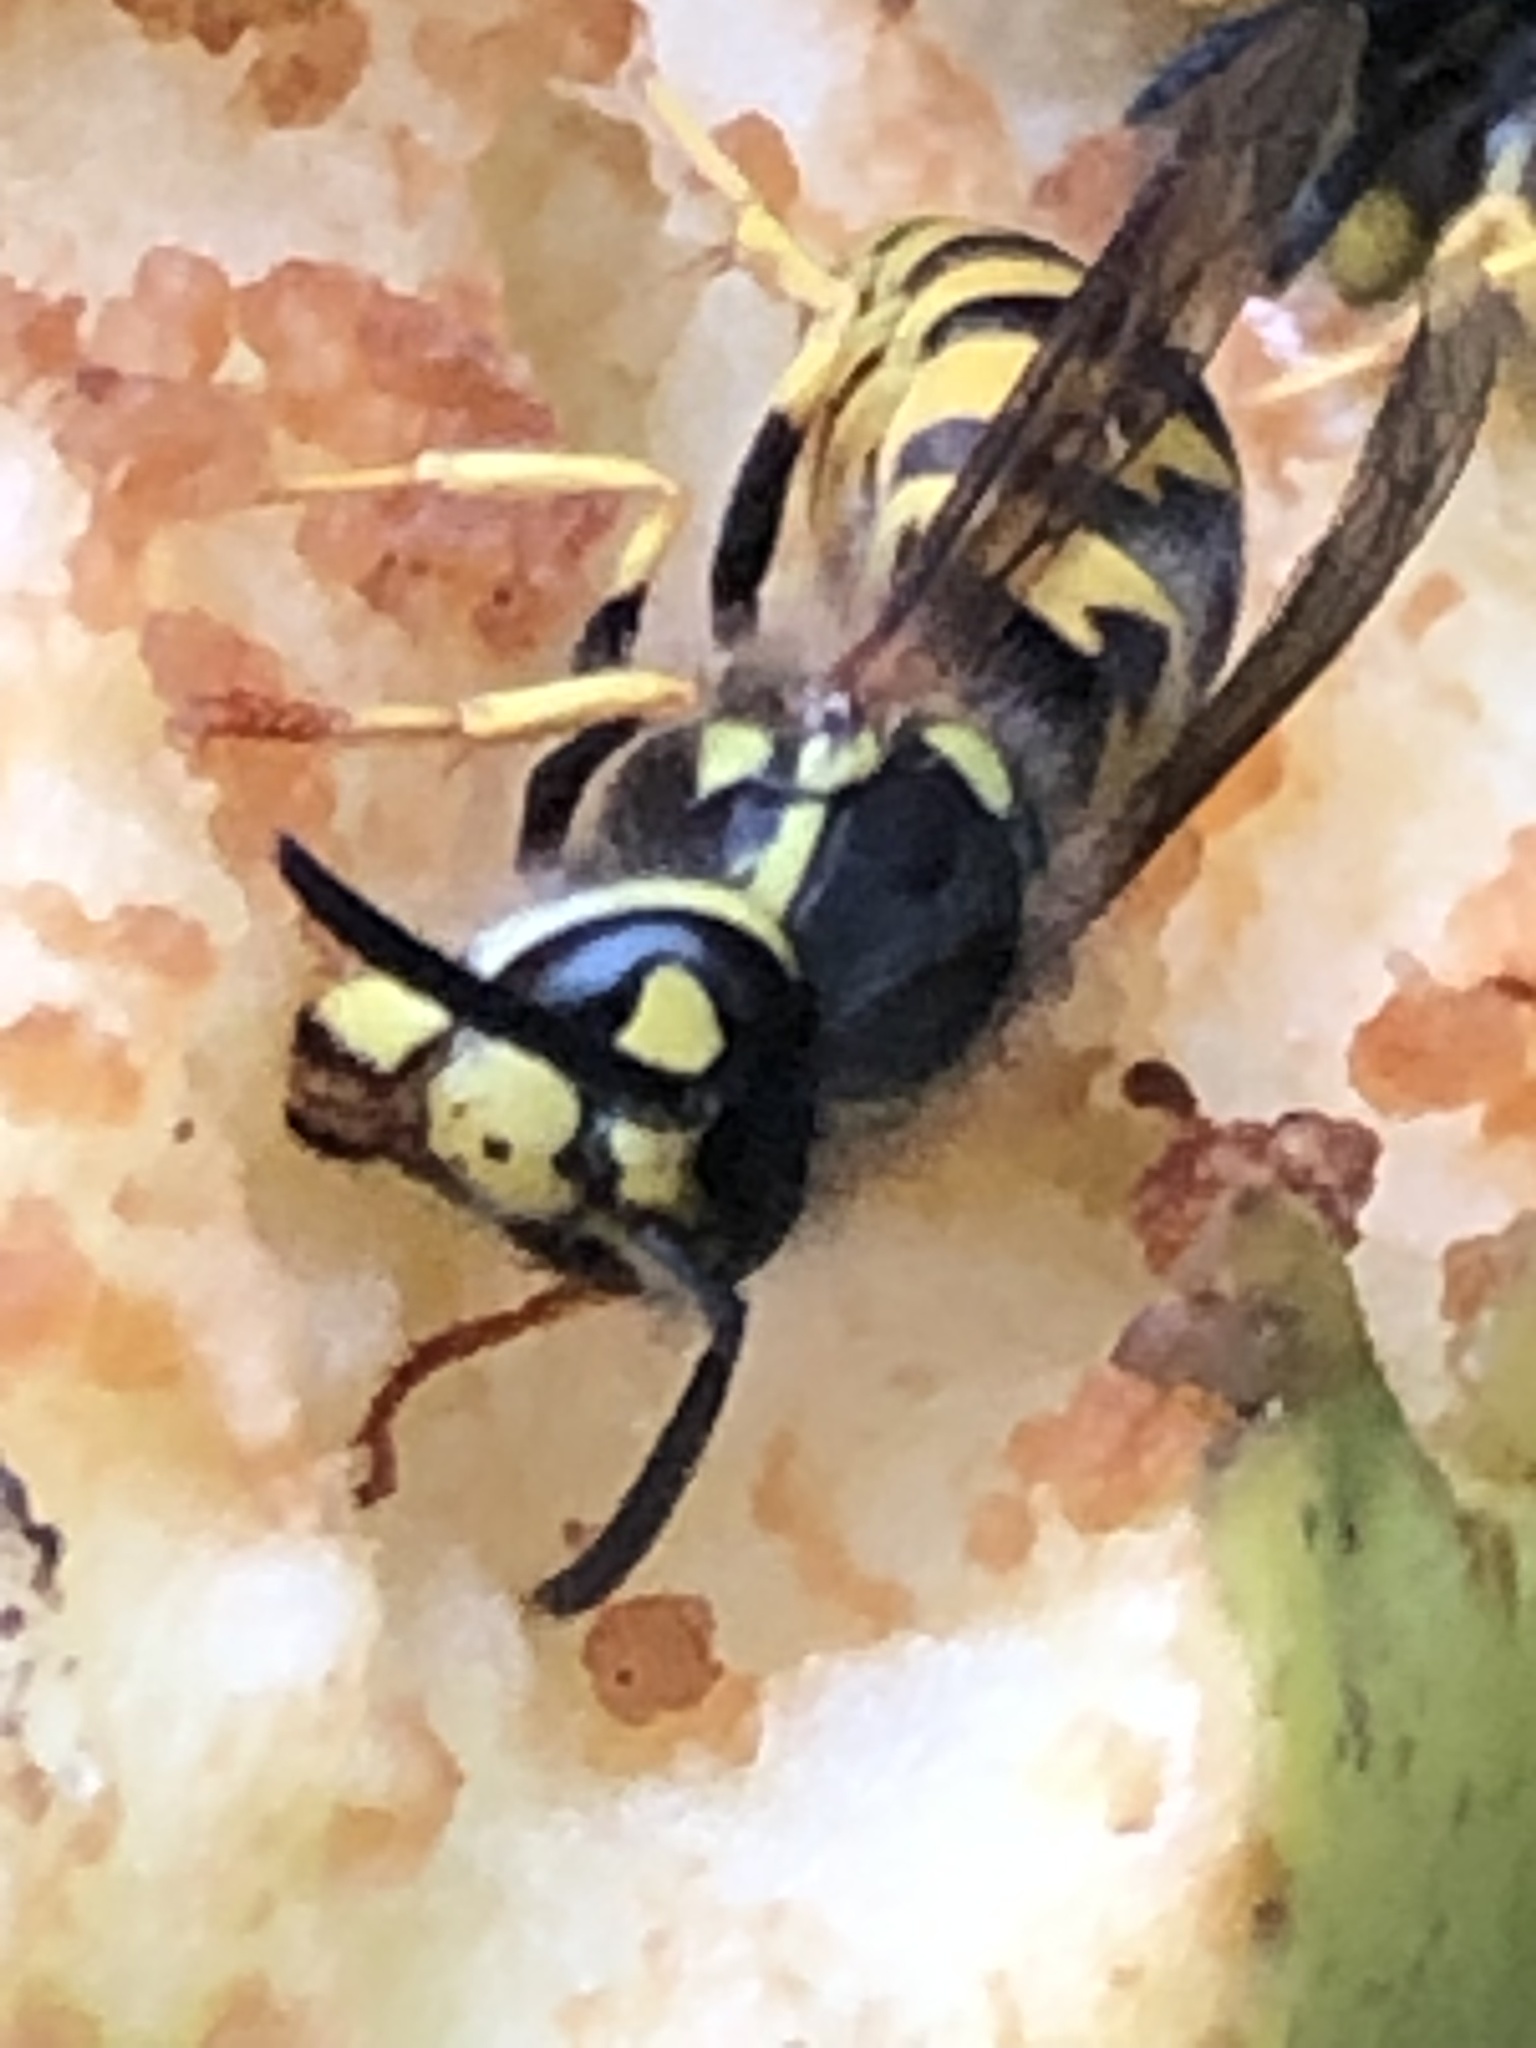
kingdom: Animalia
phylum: Arthropoda
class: Insecta
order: Hymenoptera
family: Vespidae
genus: Vespula
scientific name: Vespula germanica
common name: German wasp
